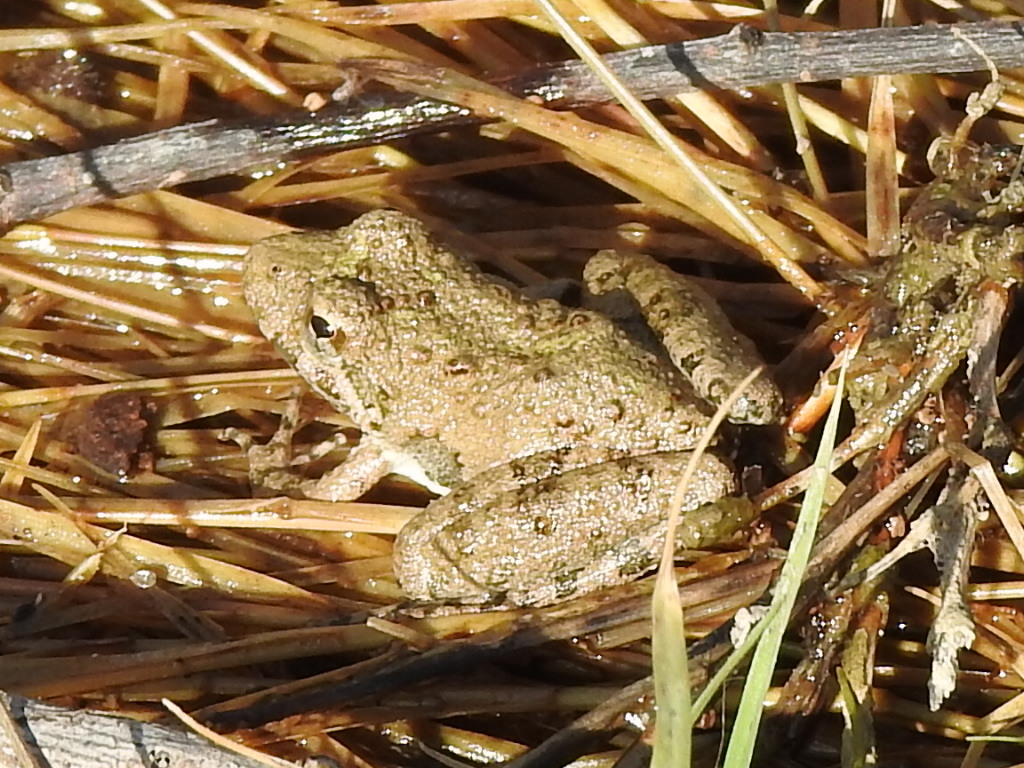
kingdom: Animalia
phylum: Chordata
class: Amphibia
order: Anura
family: Hylidae
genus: Acris
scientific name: Acris blanchardi
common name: Blanchard's cricket frog
